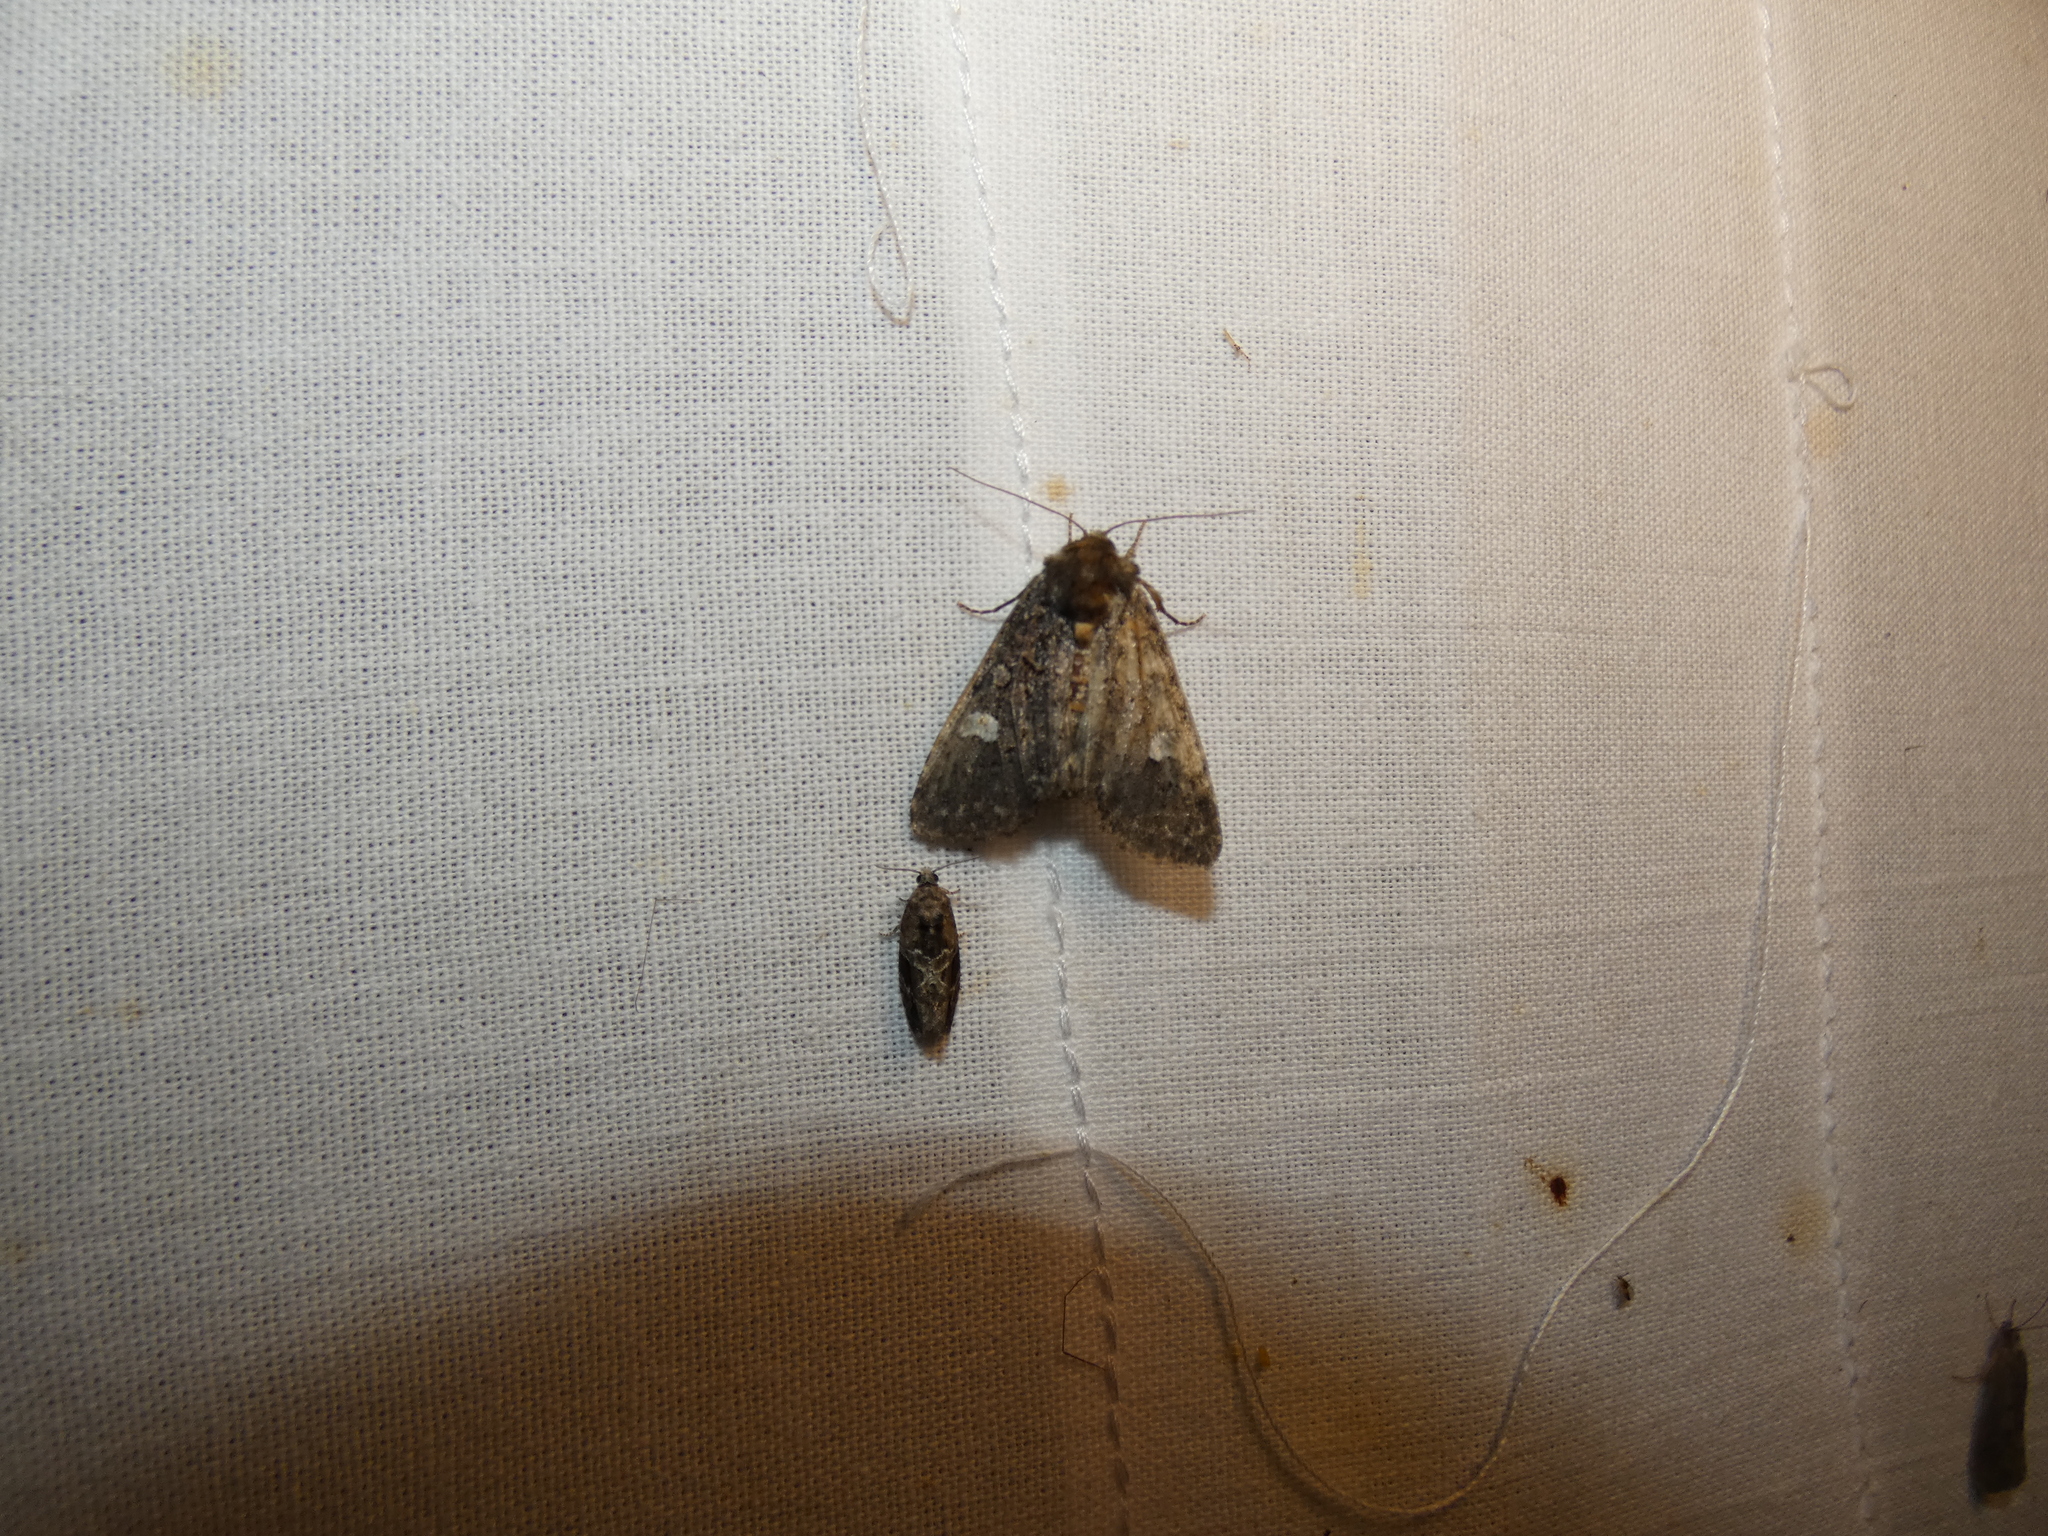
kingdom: Animalia
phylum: Arthropoda
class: Insecta
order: Lepidoptera
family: Noctuidae
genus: Melanchra
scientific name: Melanchra persicariae
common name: Dot moth
